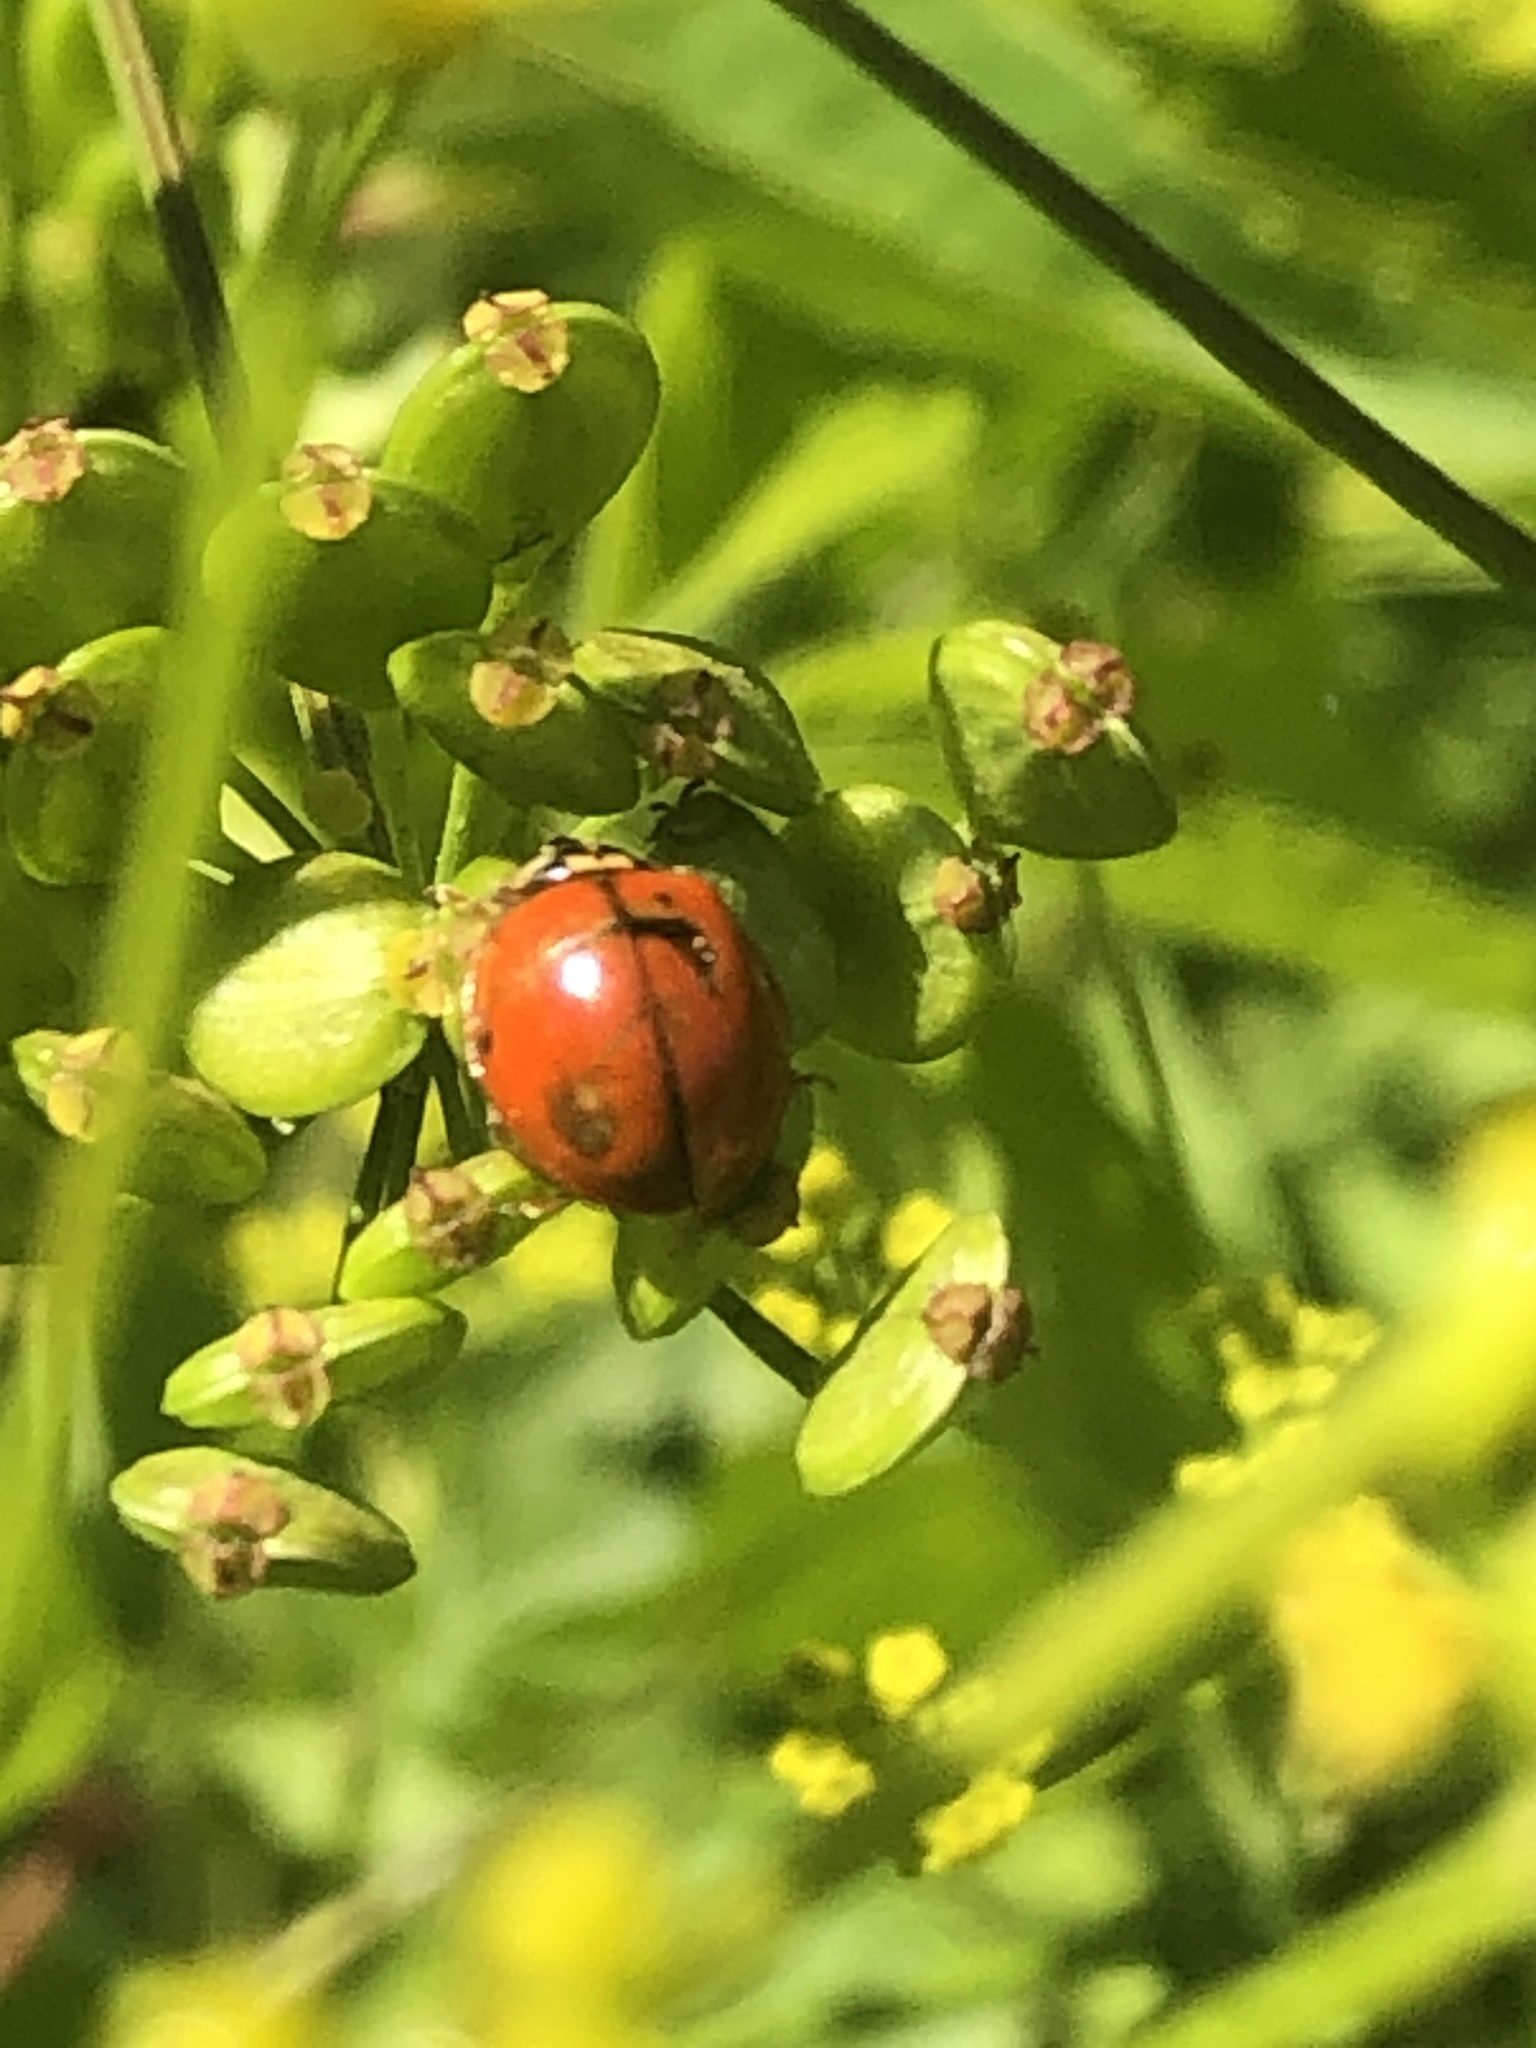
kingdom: Animalia
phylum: Arthropoda
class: Insecta
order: Coleoptera
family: Coccinellidae
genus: Harmonia
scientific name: Harmonia axyridis
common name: Harlequin ladybird
